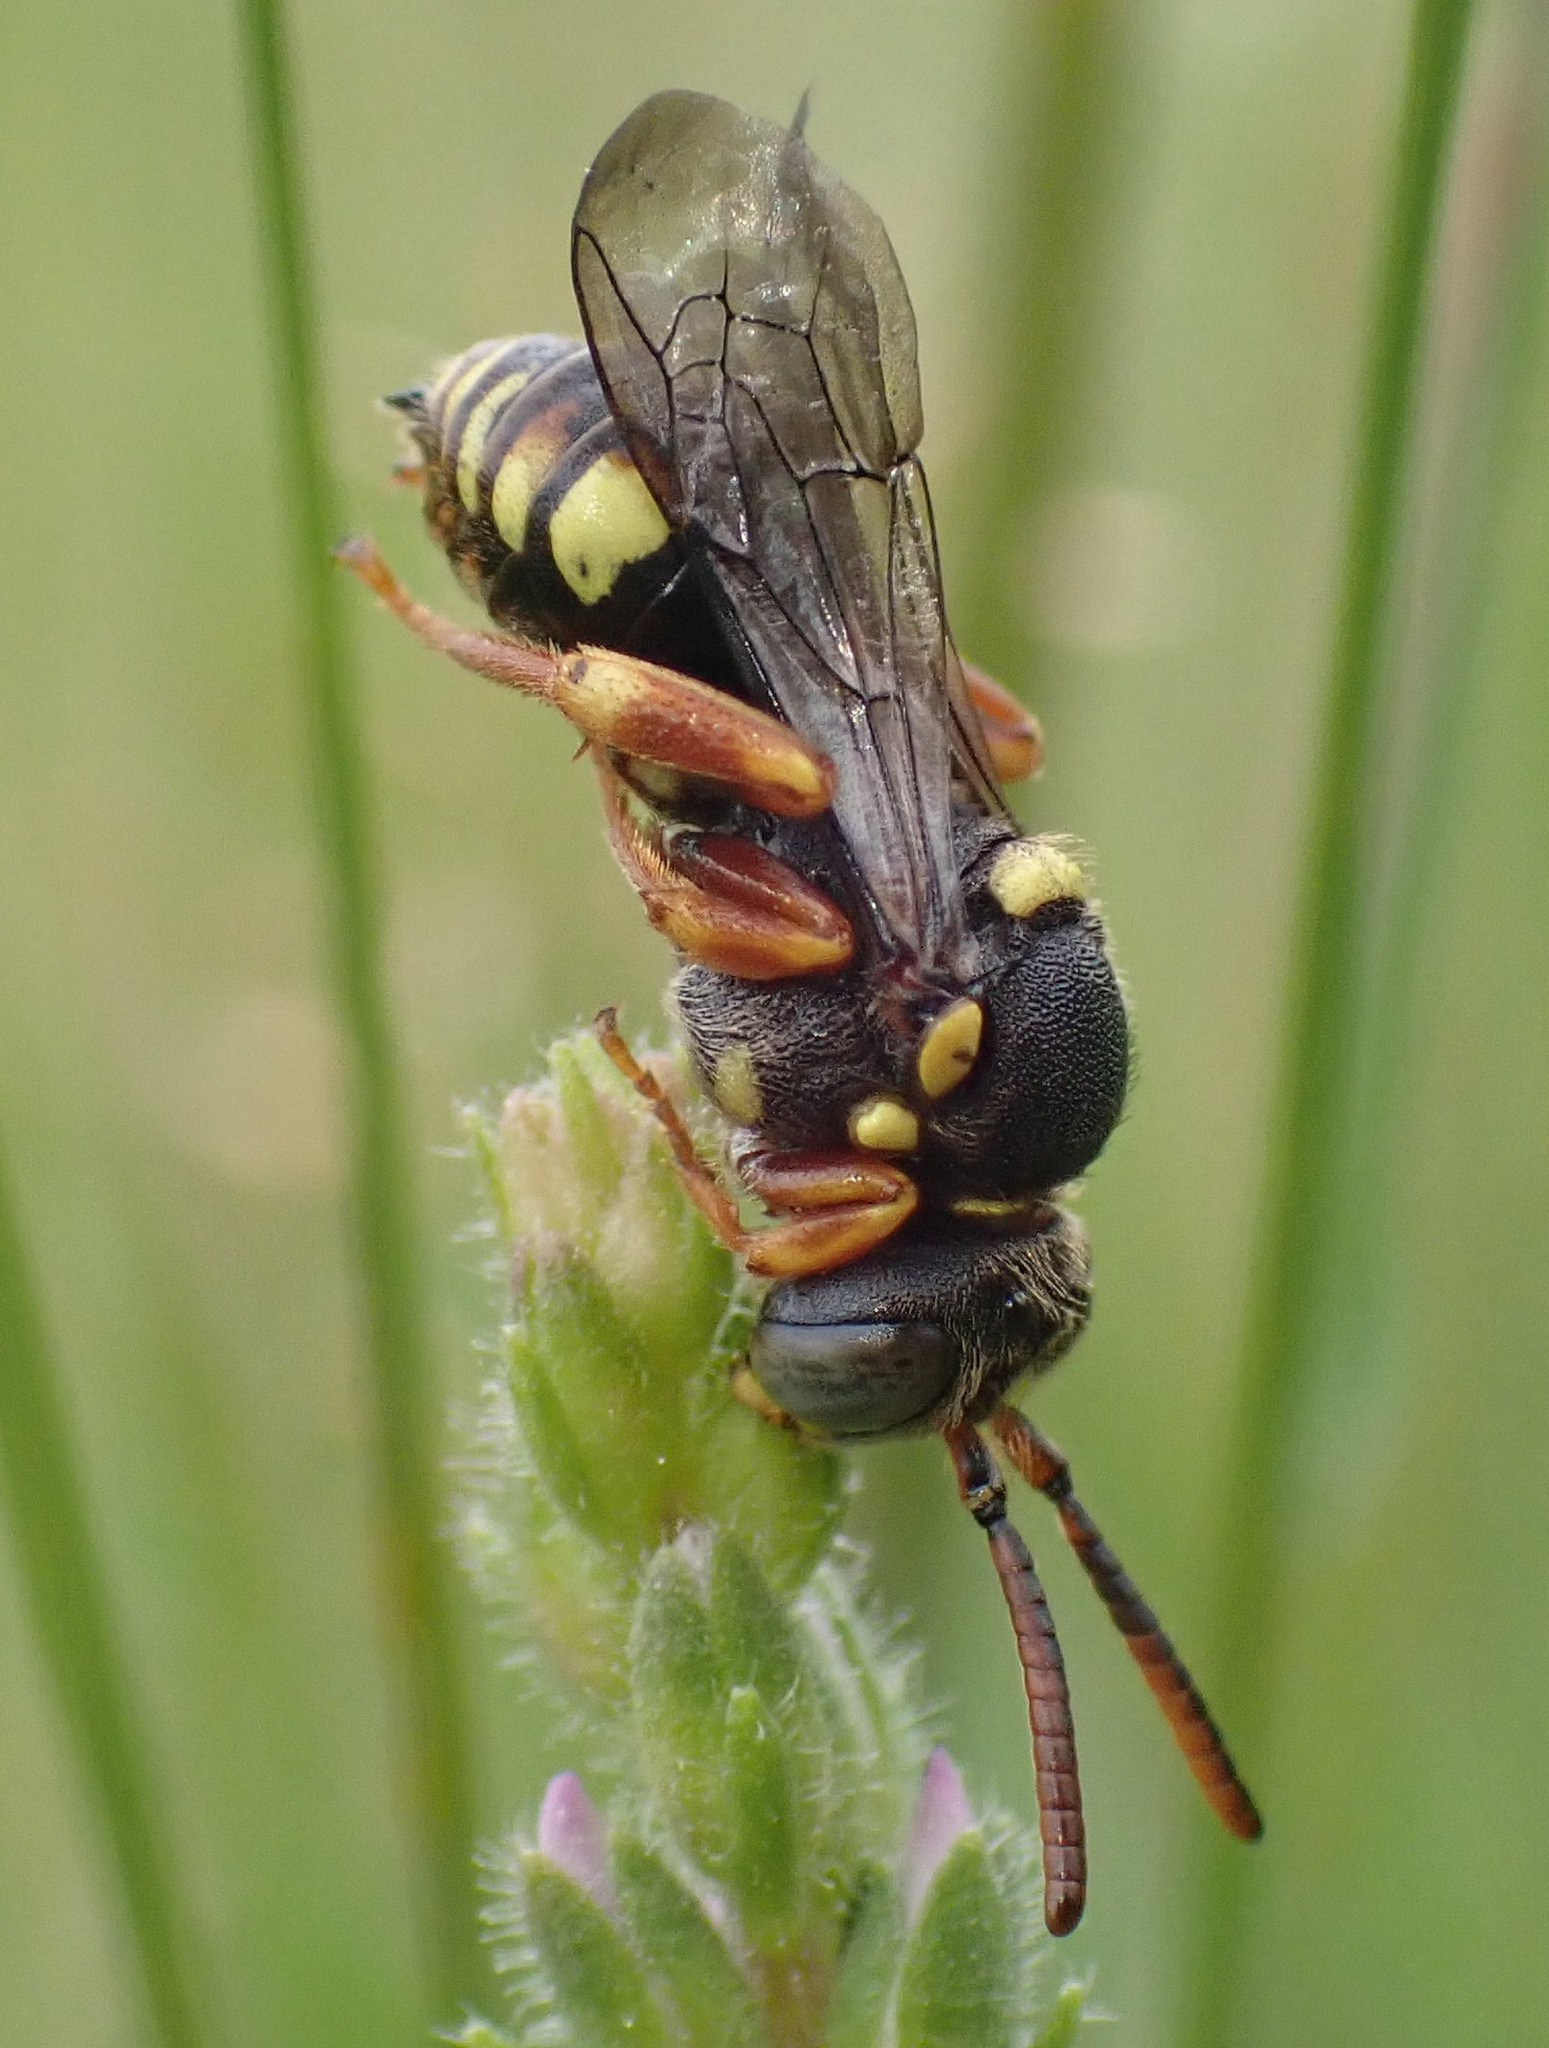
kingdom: Animalia
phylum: Arthropoda
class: Insecta
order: Hymenoptera
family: Apidae
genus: Nomada
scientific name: Nomada
